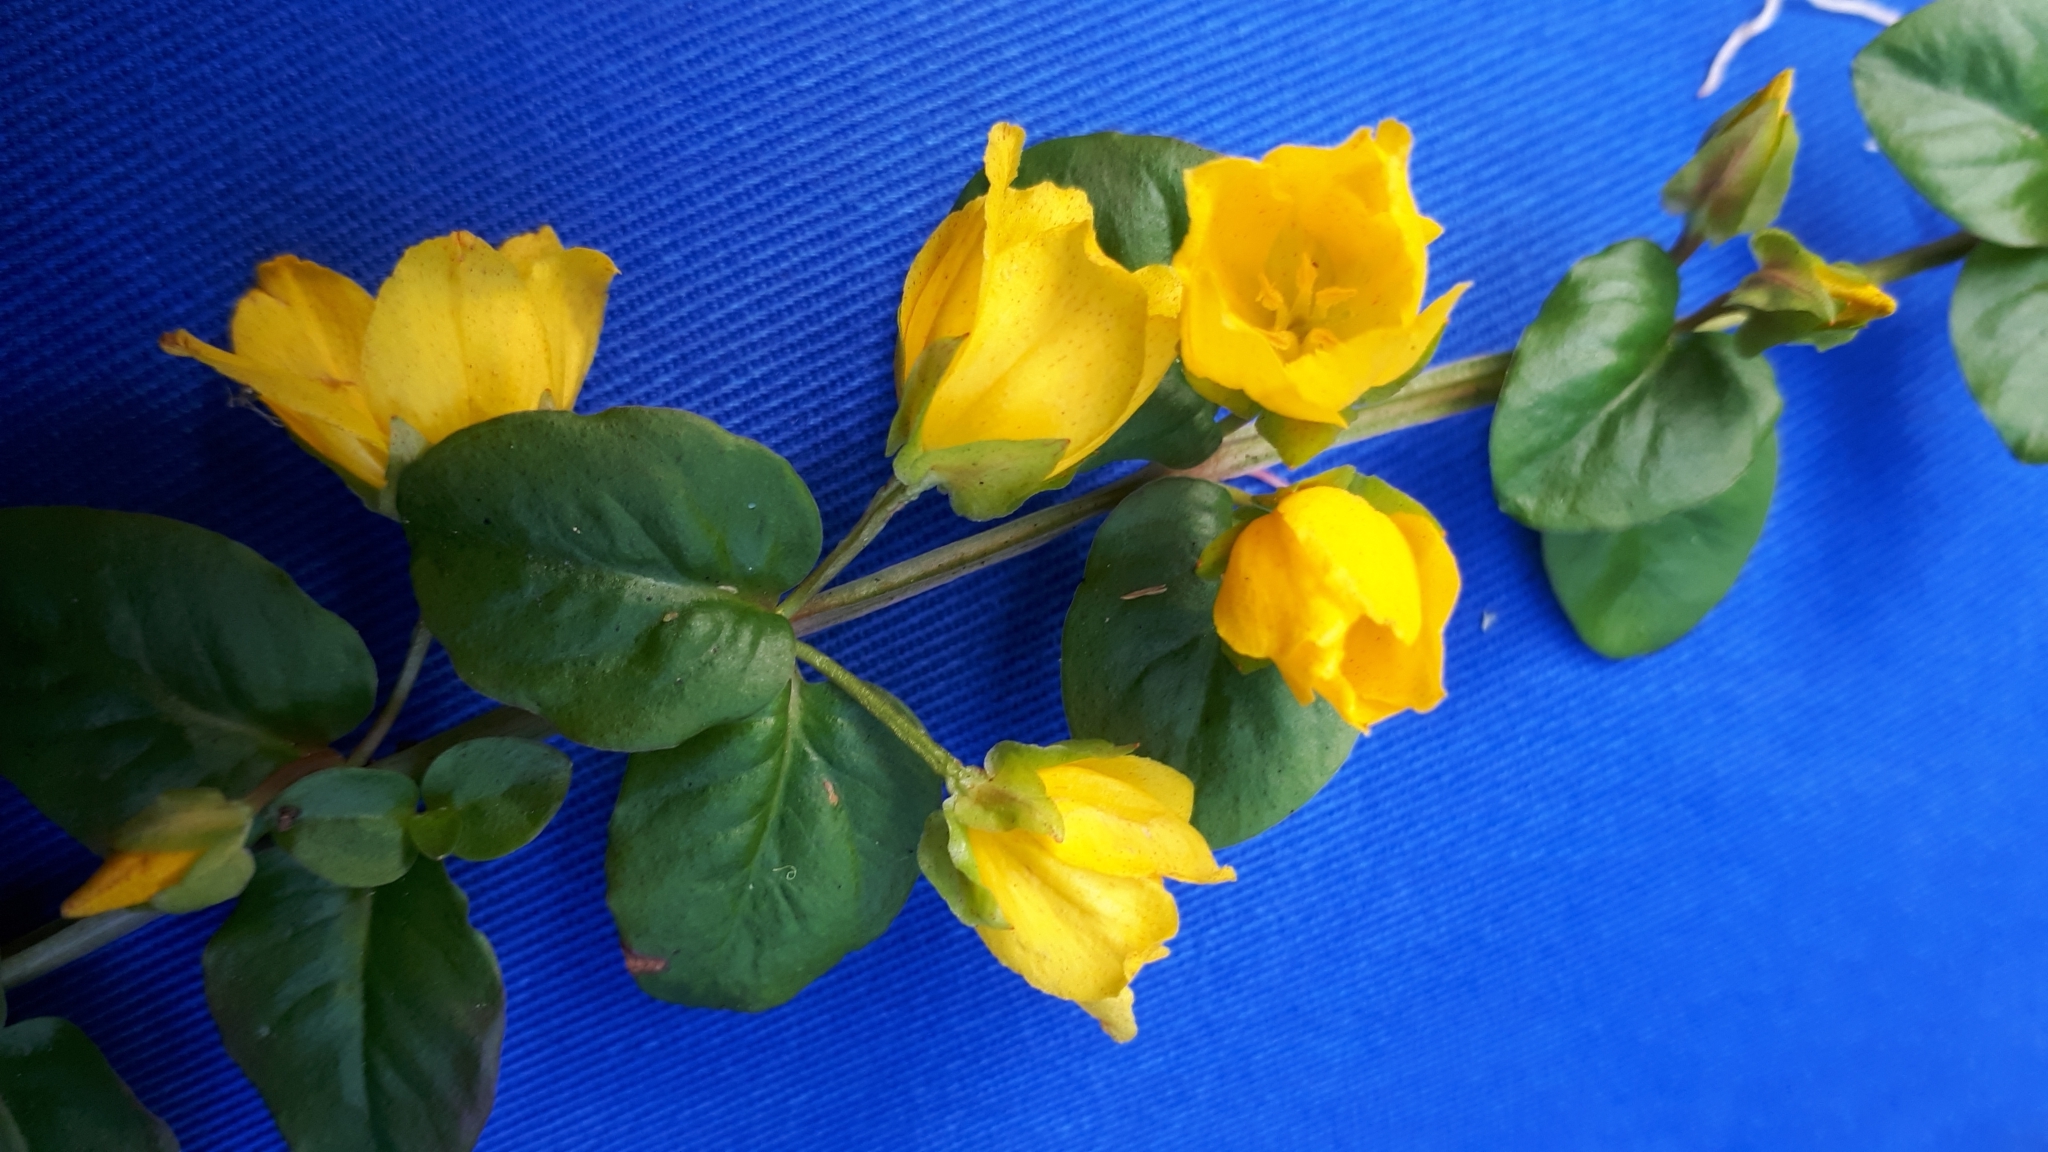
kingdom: Plantae
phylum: Tracheophyta
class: Magnoliopsida
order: Ericales
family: Primulaceae
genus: Lysimachia
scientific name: Lysimachia nummularia
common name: Moneywort
